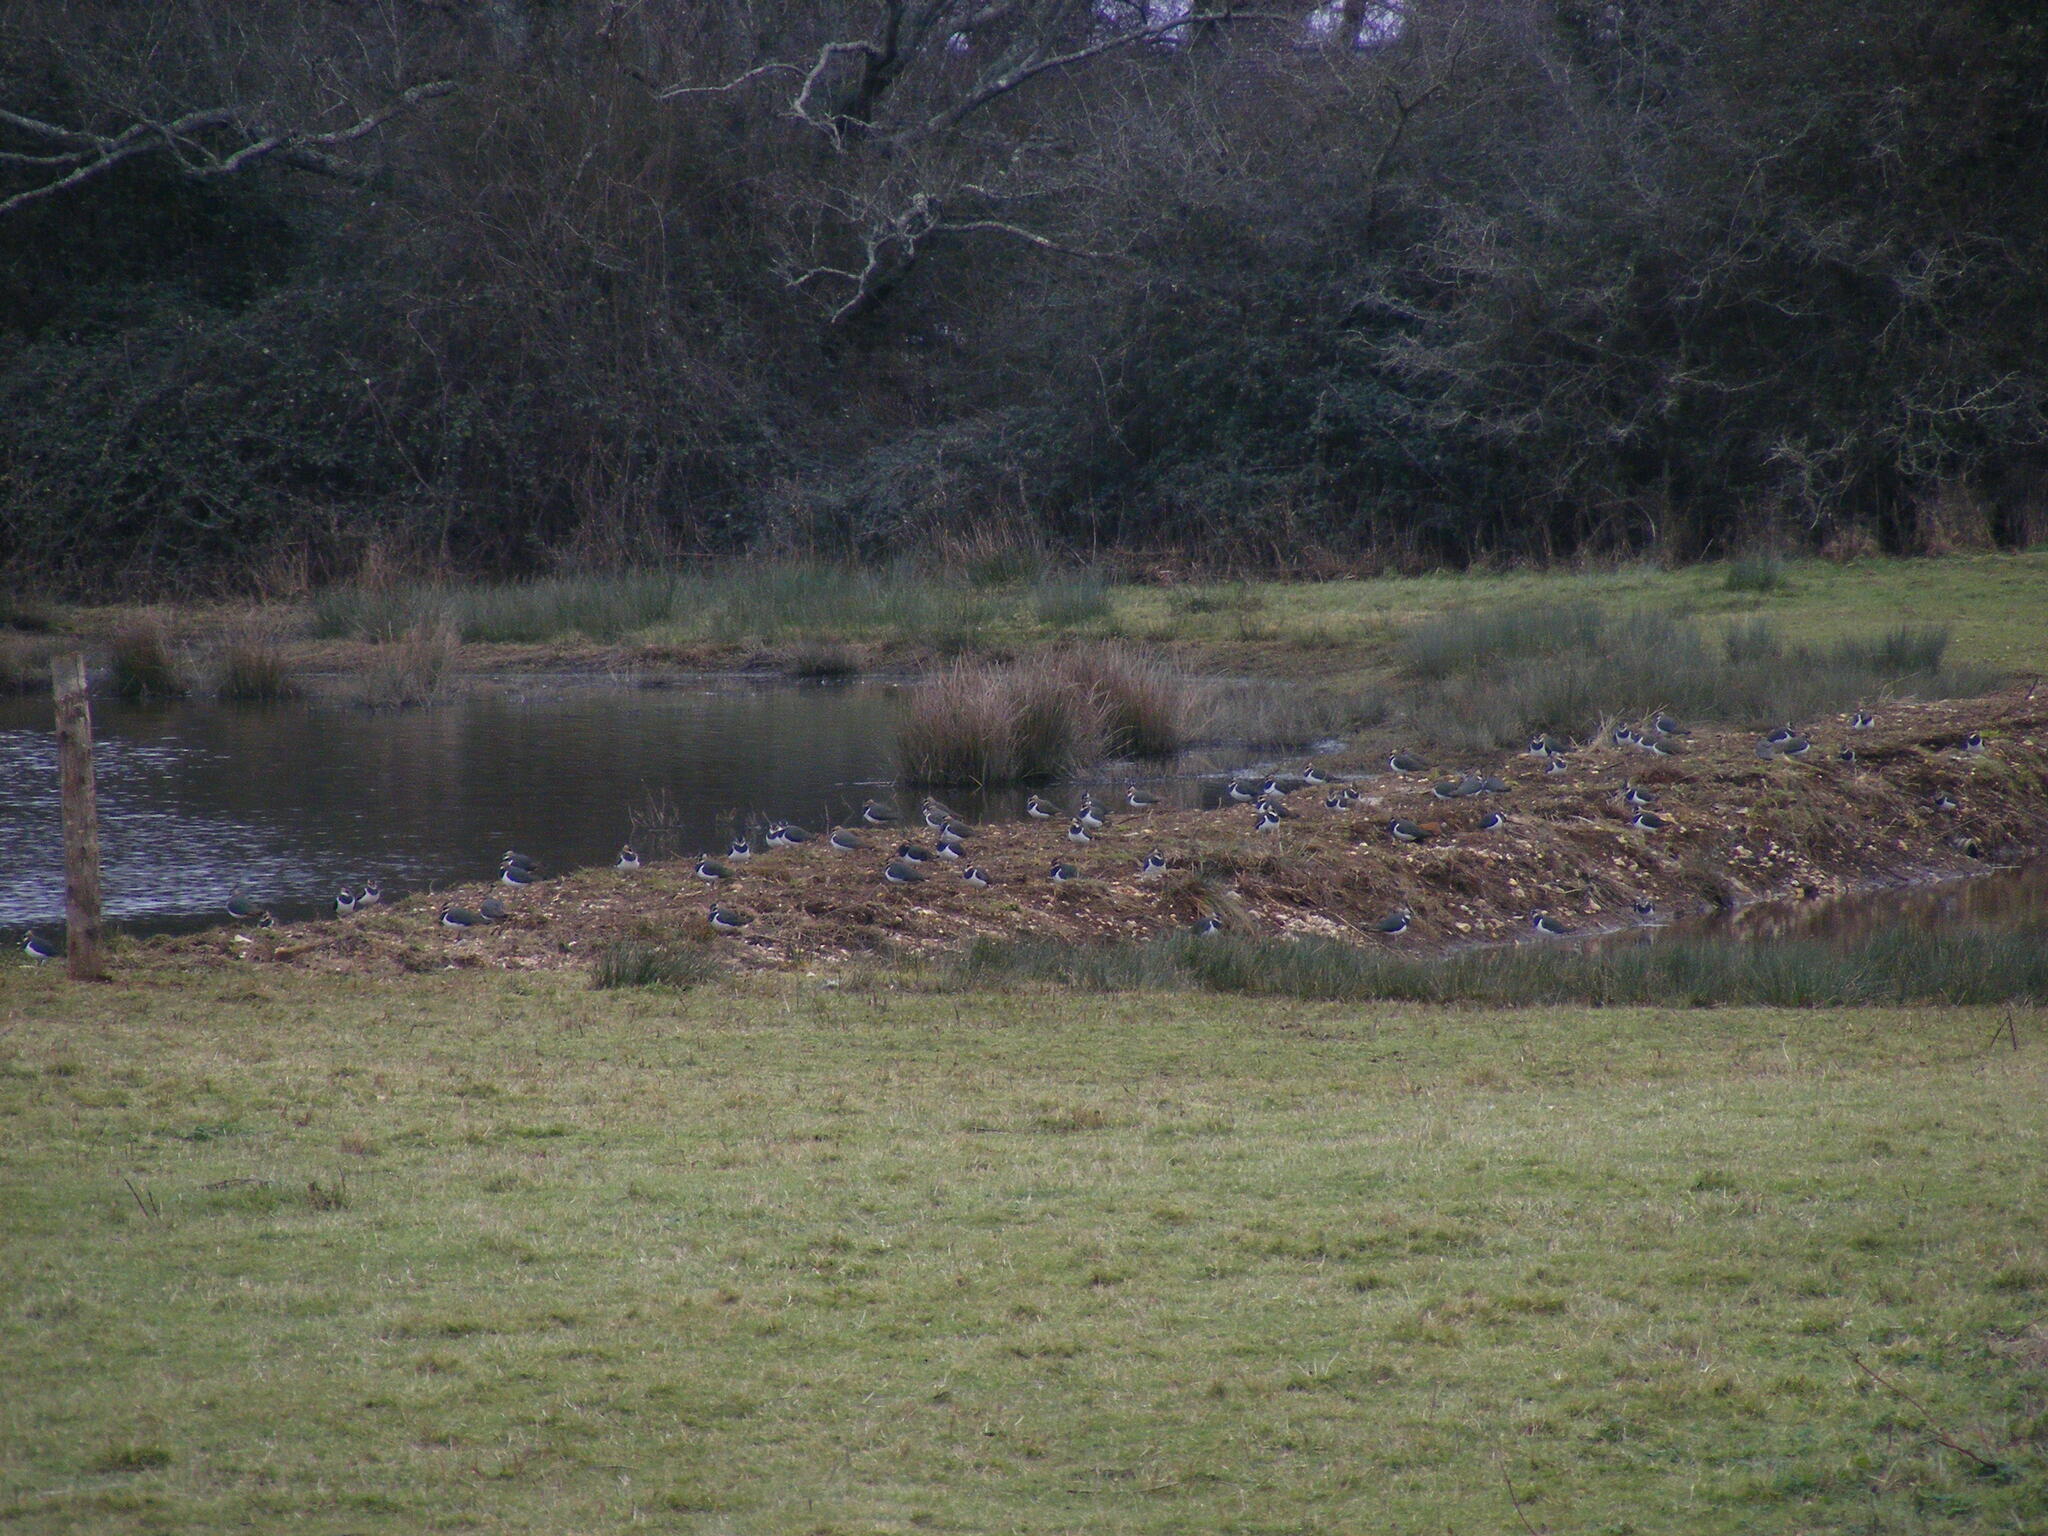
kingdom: Animalia
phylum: Chordata
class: Aves
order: Charadriiformes
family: Charadriidae
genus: Vanellus
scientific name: Vanellus vanellus
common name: Northern lapwing
